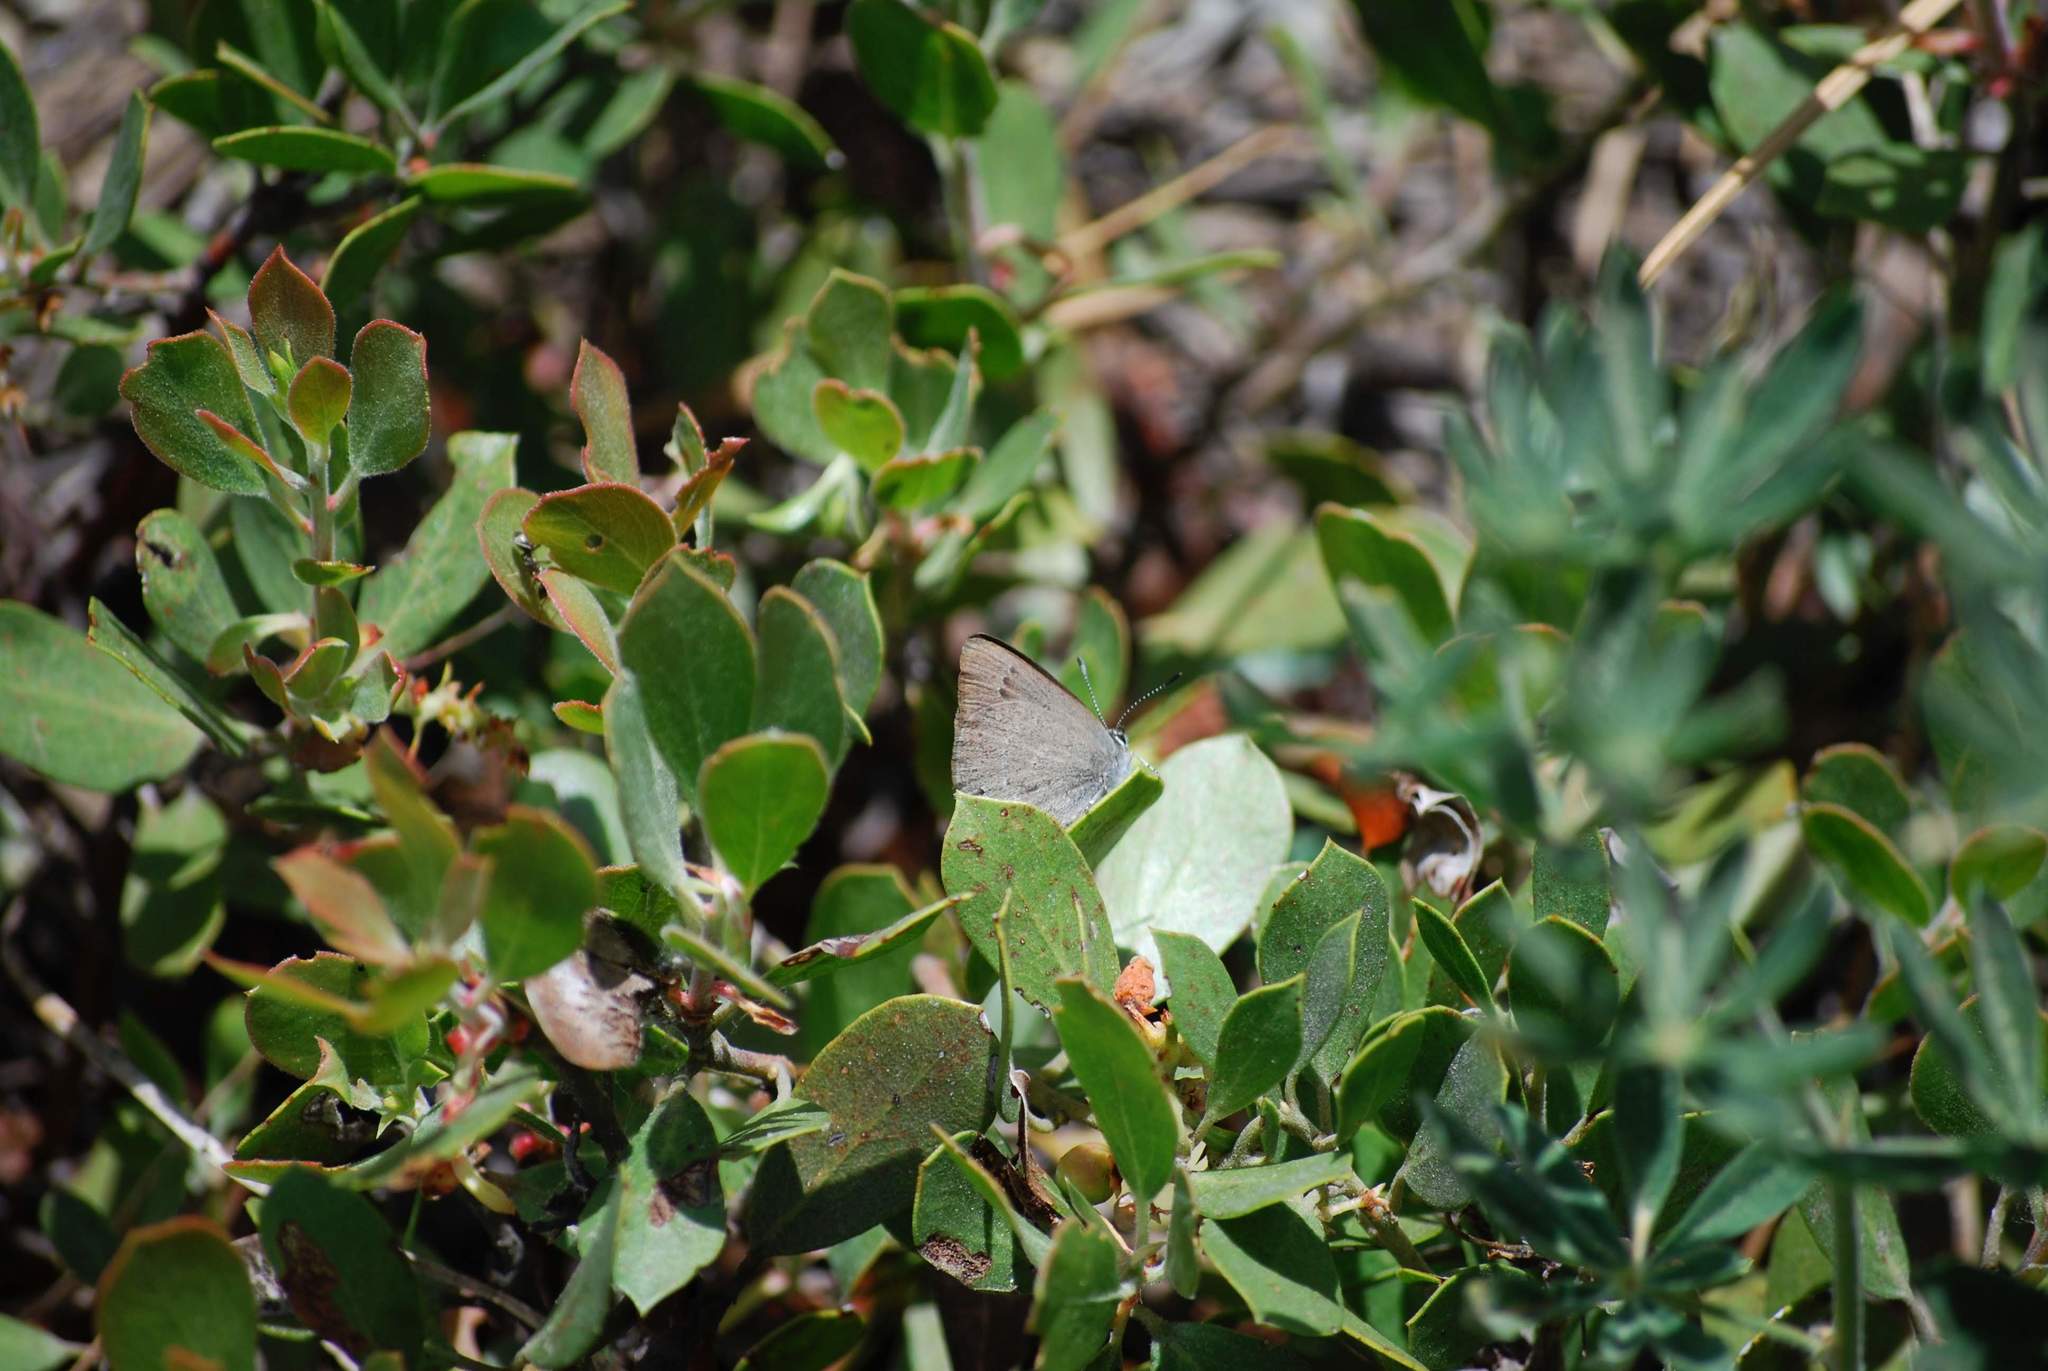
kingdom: Animalia
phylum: Arthropoda
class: Insecta
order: Lepidoptera
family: Lycaenidae
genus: Satyrium
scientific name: Satyrium fuliginosa
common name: Western sooty hairstreak
